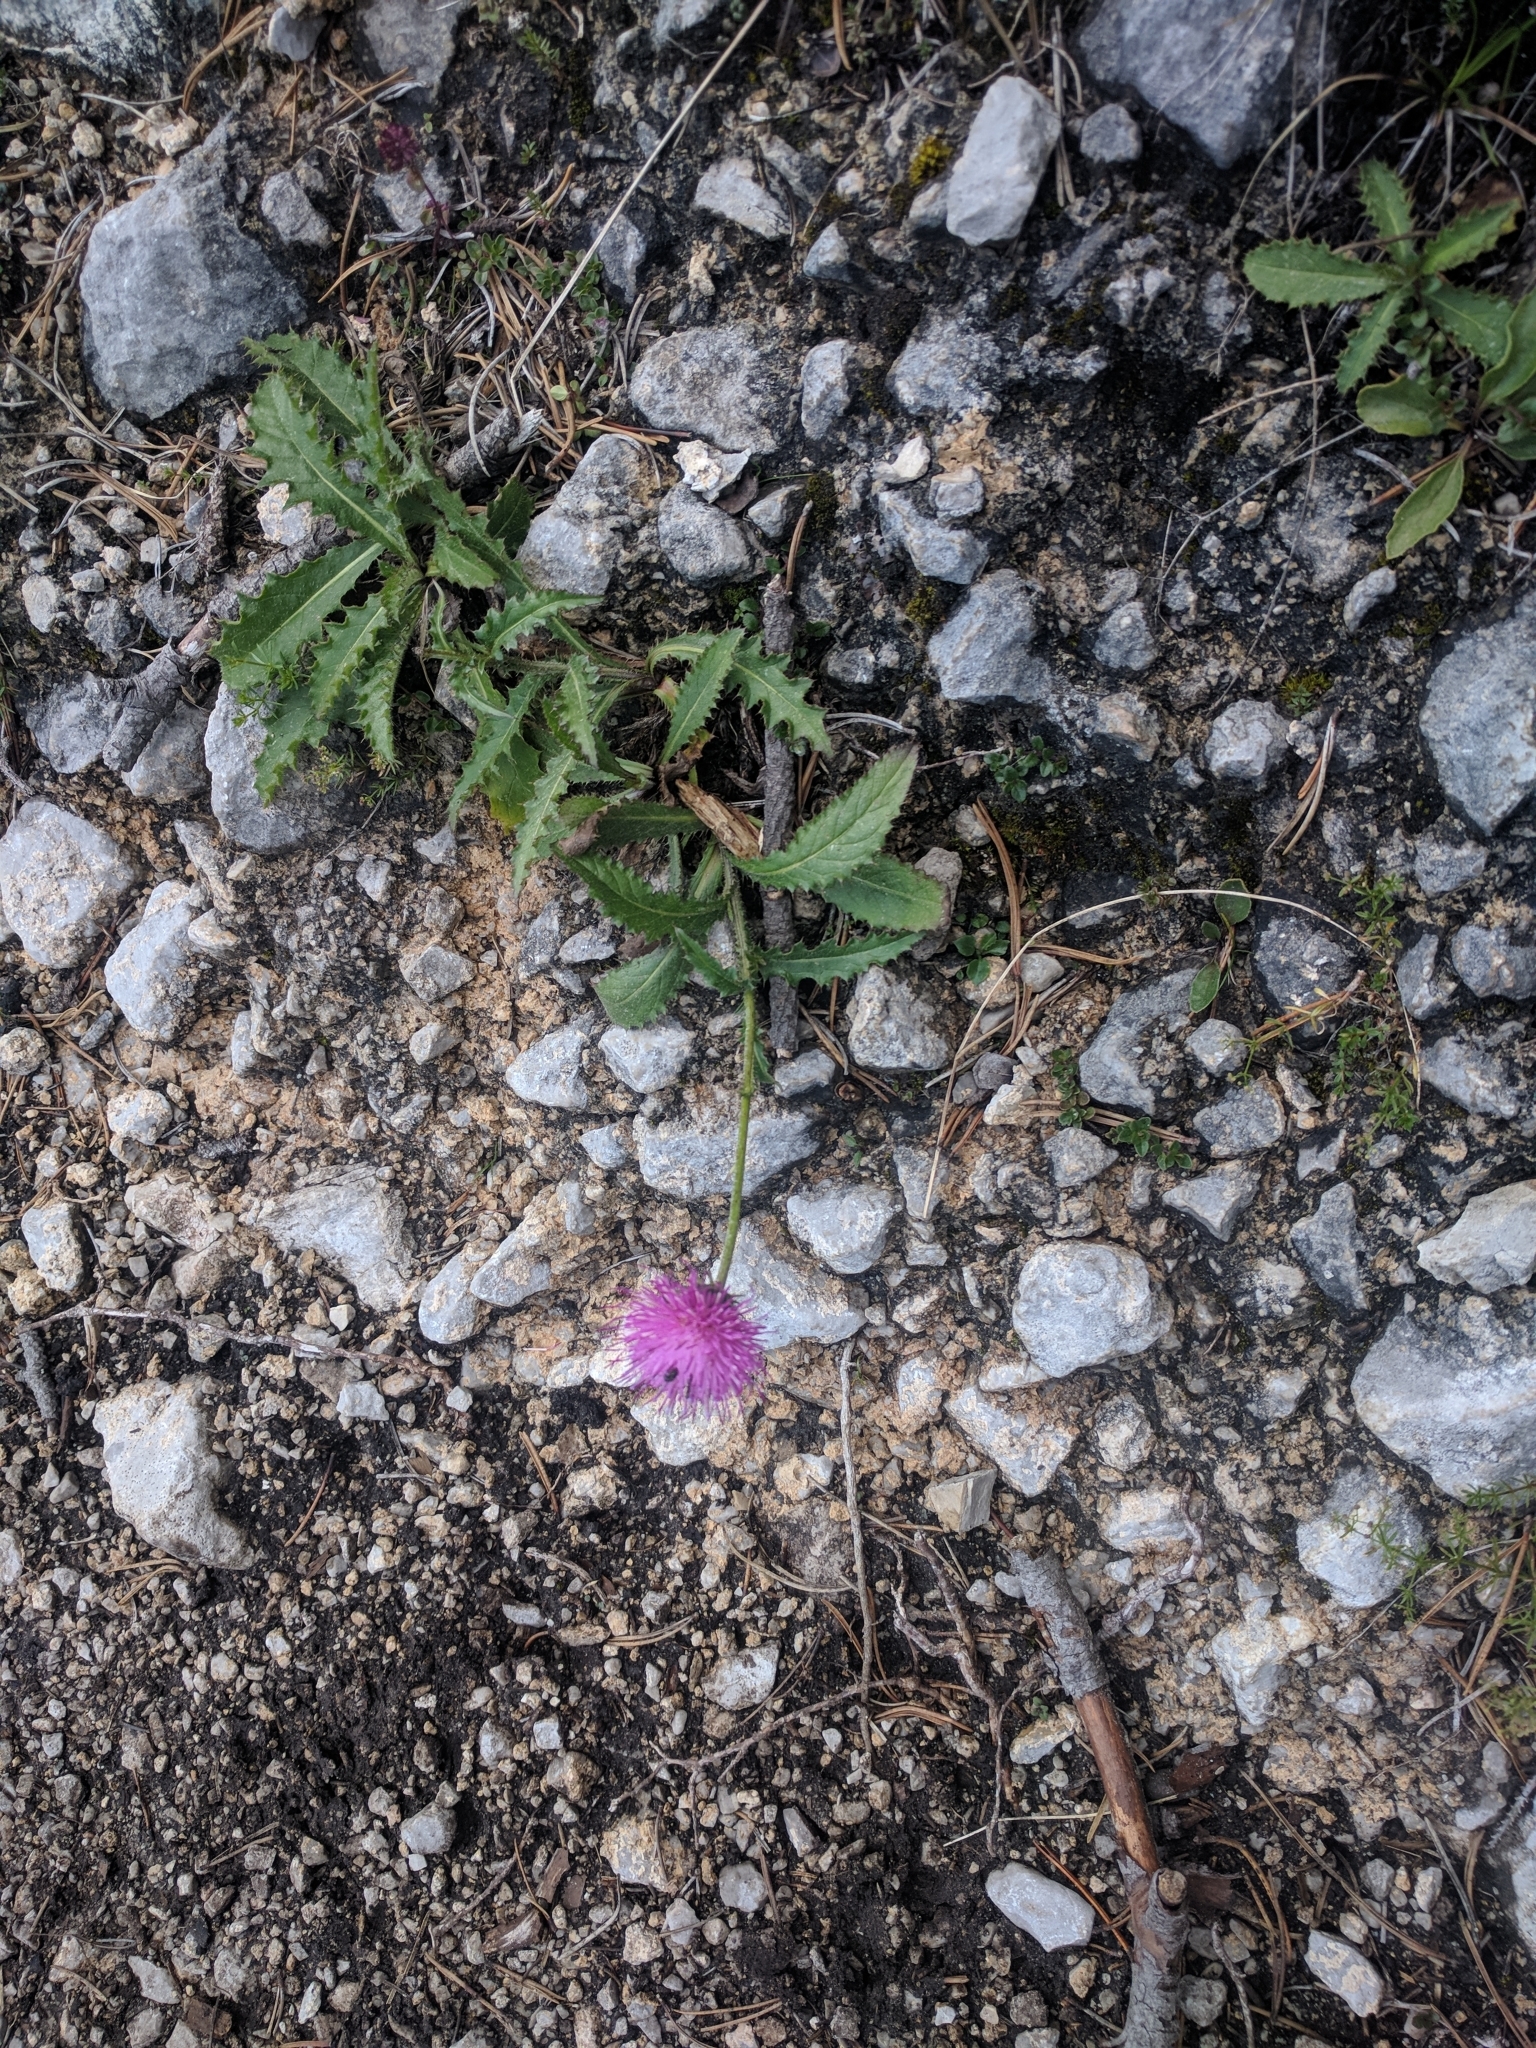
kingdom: Plantae
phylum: Tracheophyta
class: Magnoliopsida
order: Asterales
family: Asteraceae
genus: Carduus
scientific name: Carduus defloratus
